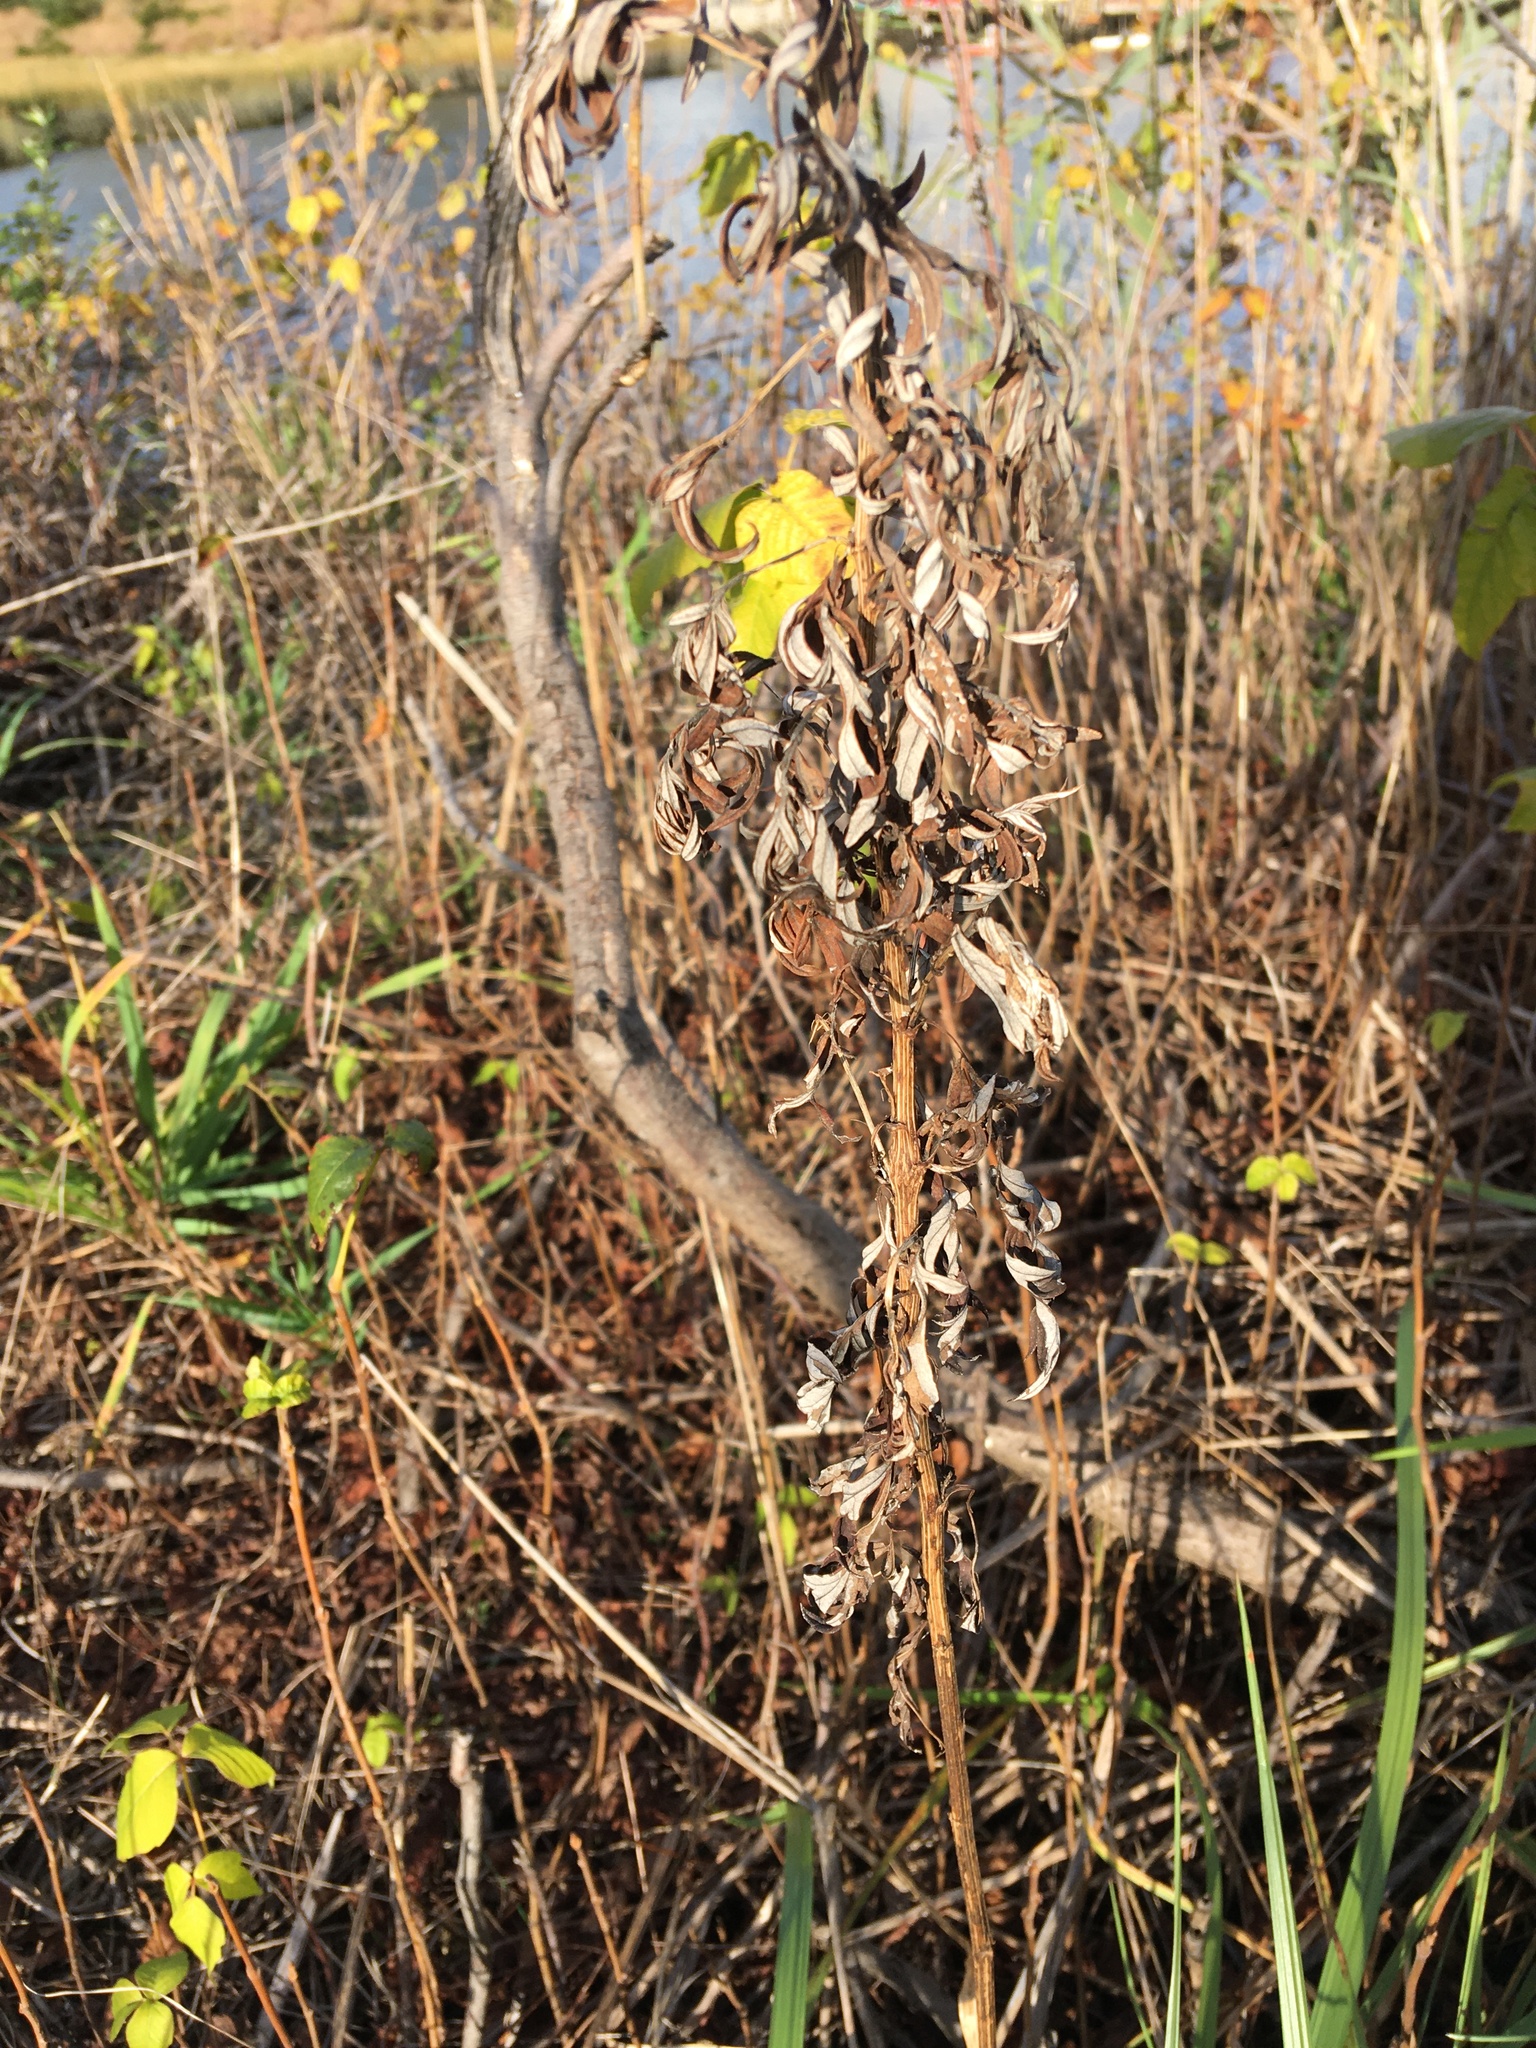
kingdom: Plantae
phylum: Tracheophyta
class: Magnoliopsida
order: Asterales
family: Asteraceae
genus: Artemisia
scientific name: Artemisia vulgaris
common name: Mugwort
